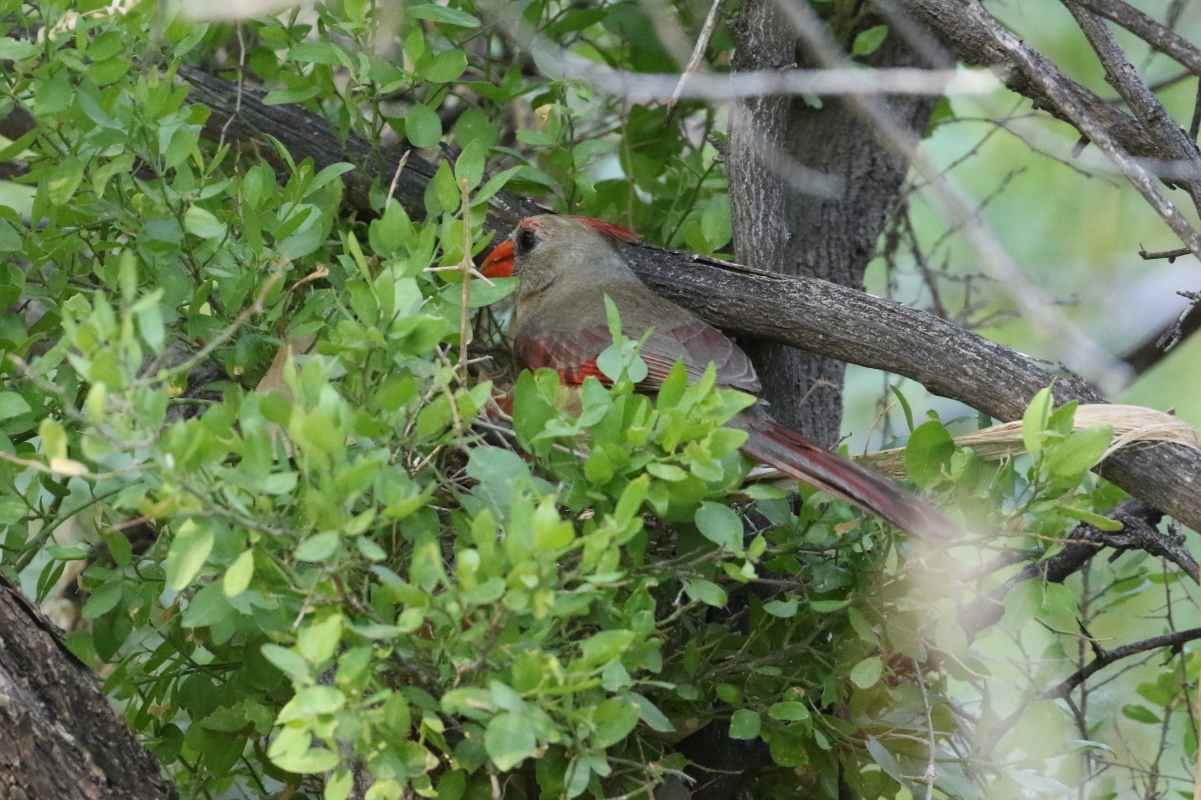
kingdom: Animalia
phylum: Chordata
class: Aves
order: Passeriformes
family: Cardinalidae
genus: Cardinalis
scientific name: Cardinalis cardinalis
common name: Northern cardinal
